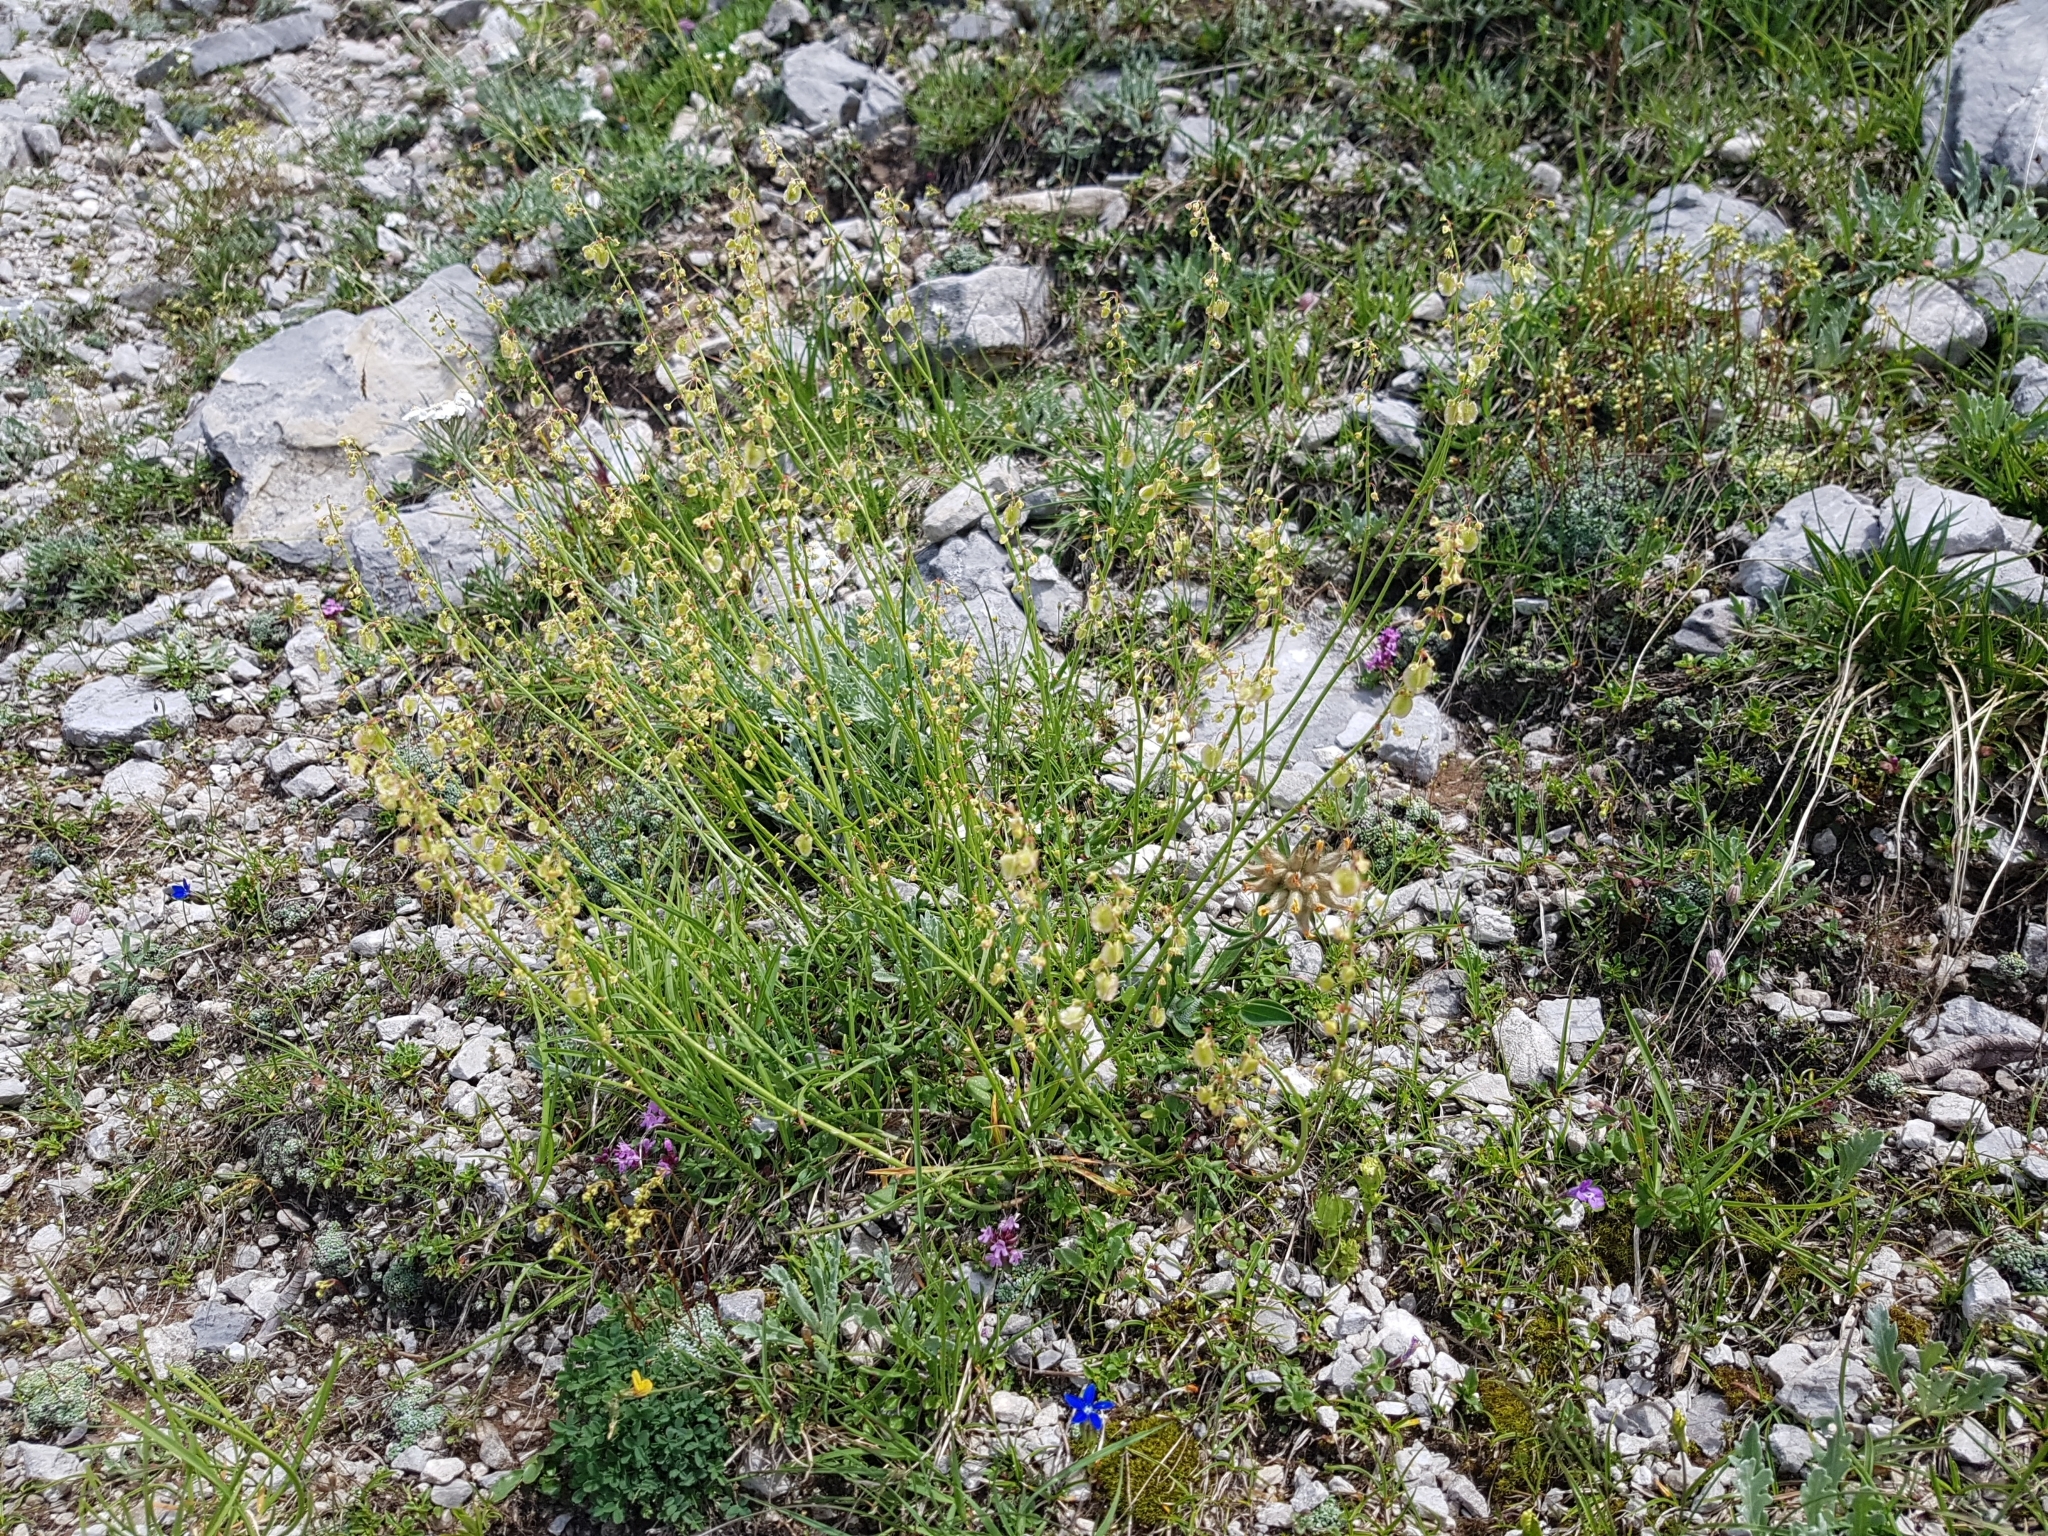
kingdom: Plantae
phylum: Tracheophyta
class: Magnoliopsida
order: Caryophyllales
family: Polygonaceae
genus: Rumex
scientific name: Rumex scutatus
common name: French sorrel
